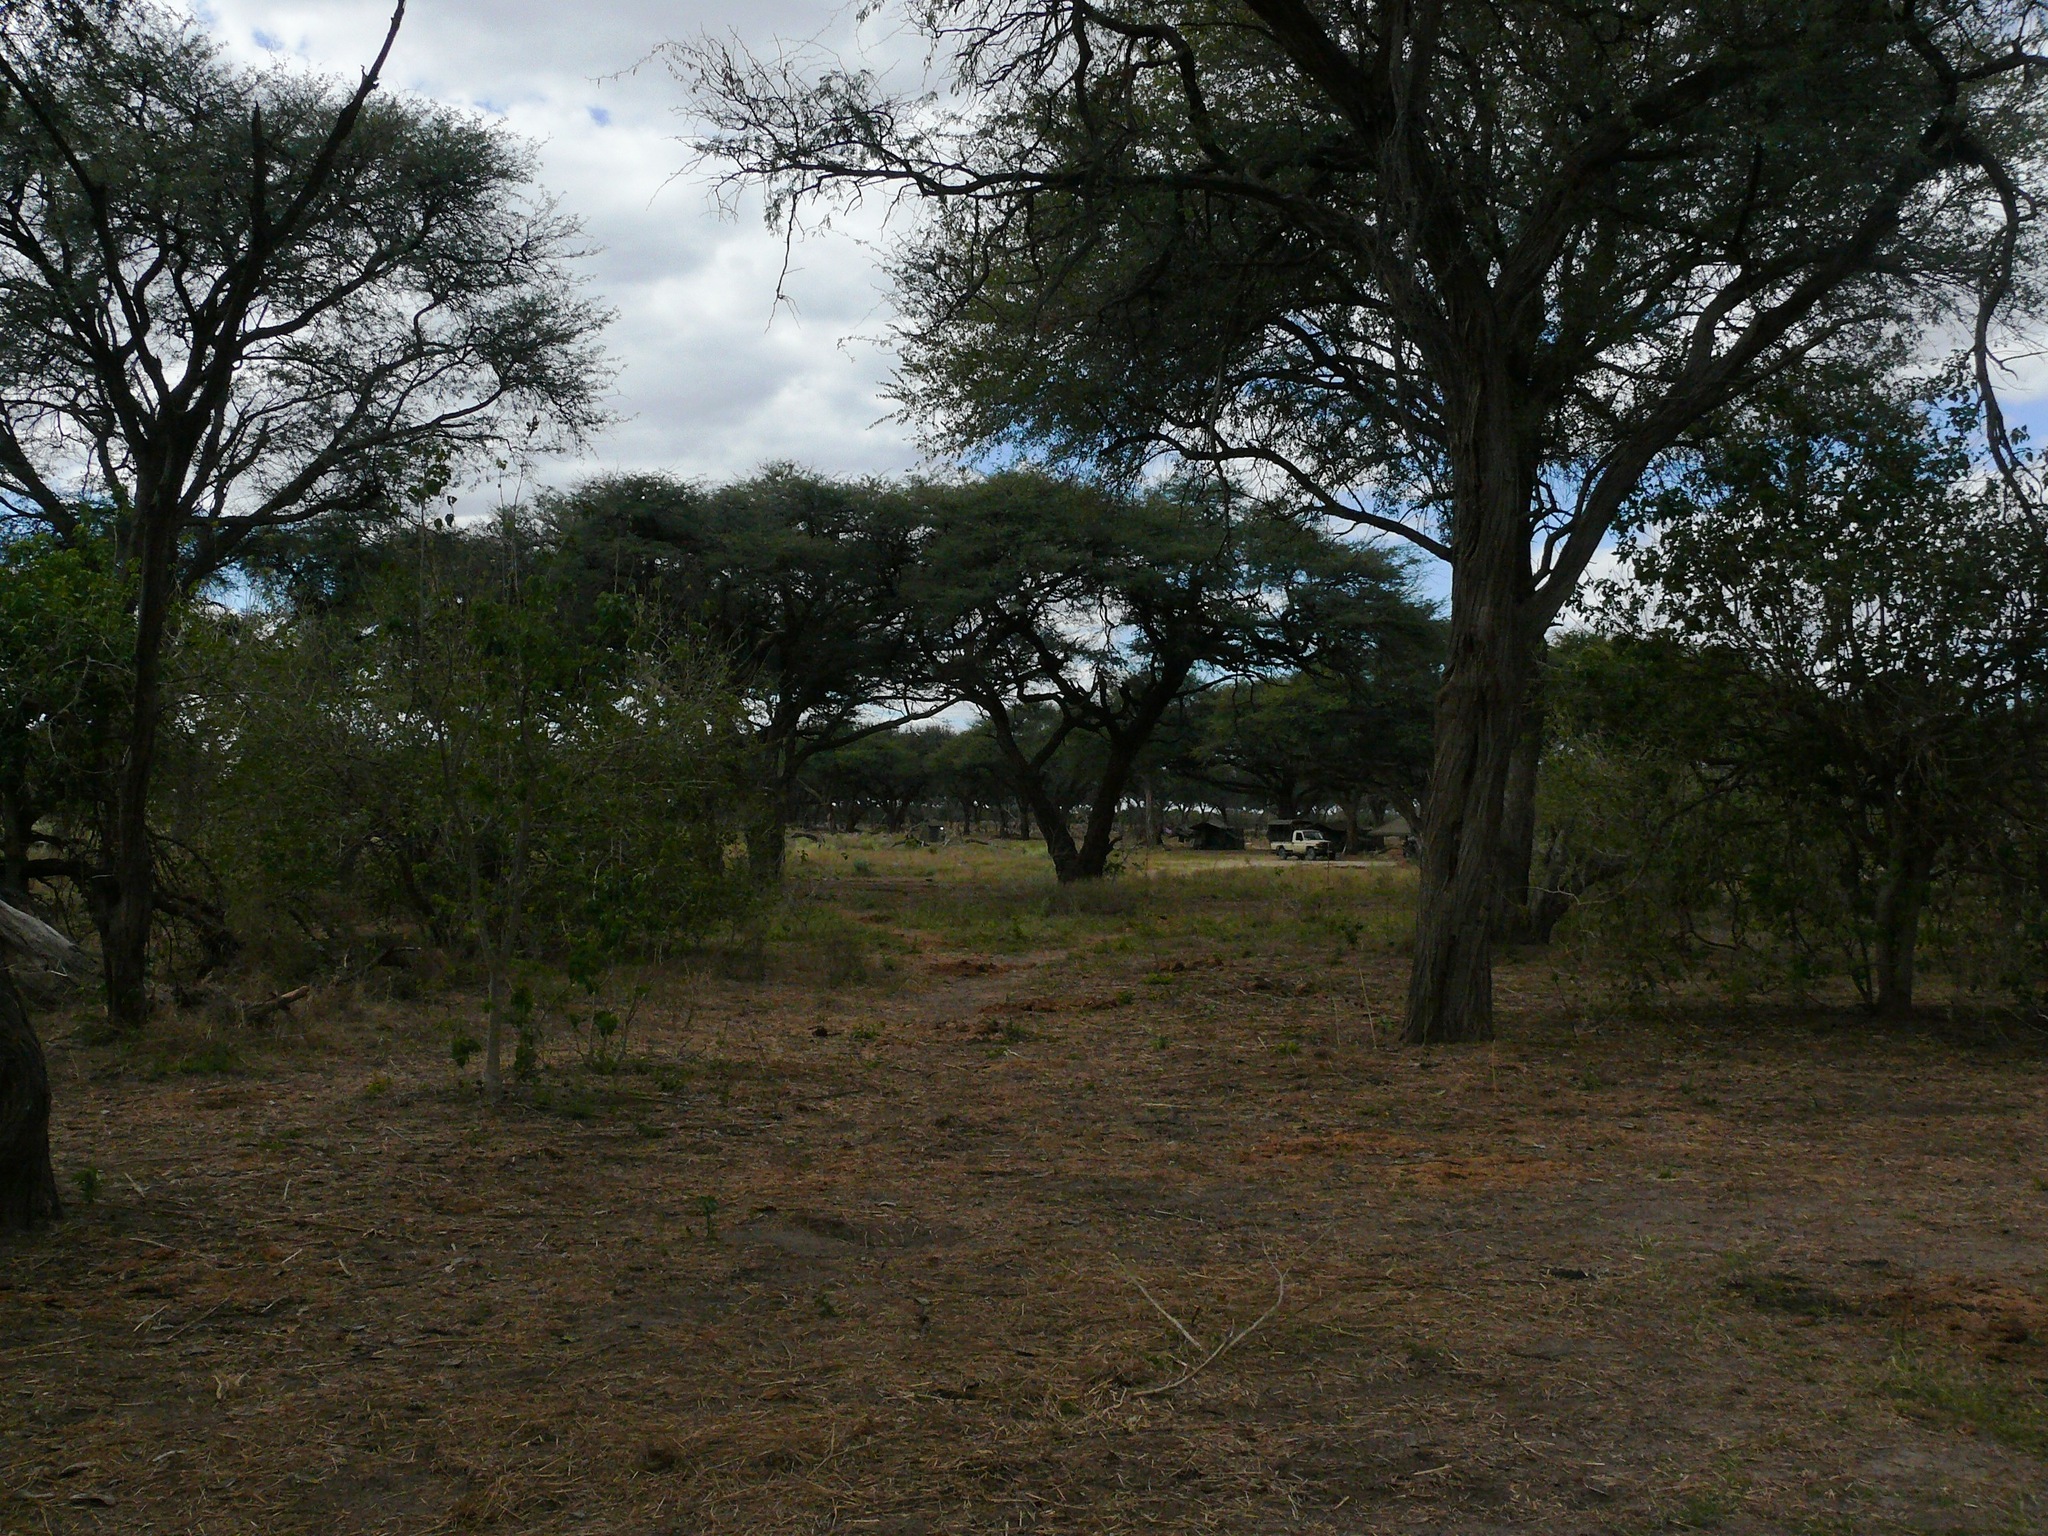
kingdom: Plantae
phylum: Tracheophyta
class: Magnoliopsida
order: Fabales
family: Fabaceae
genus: Vachellia
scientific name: Vachellia erioloba
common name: Camel thorn
